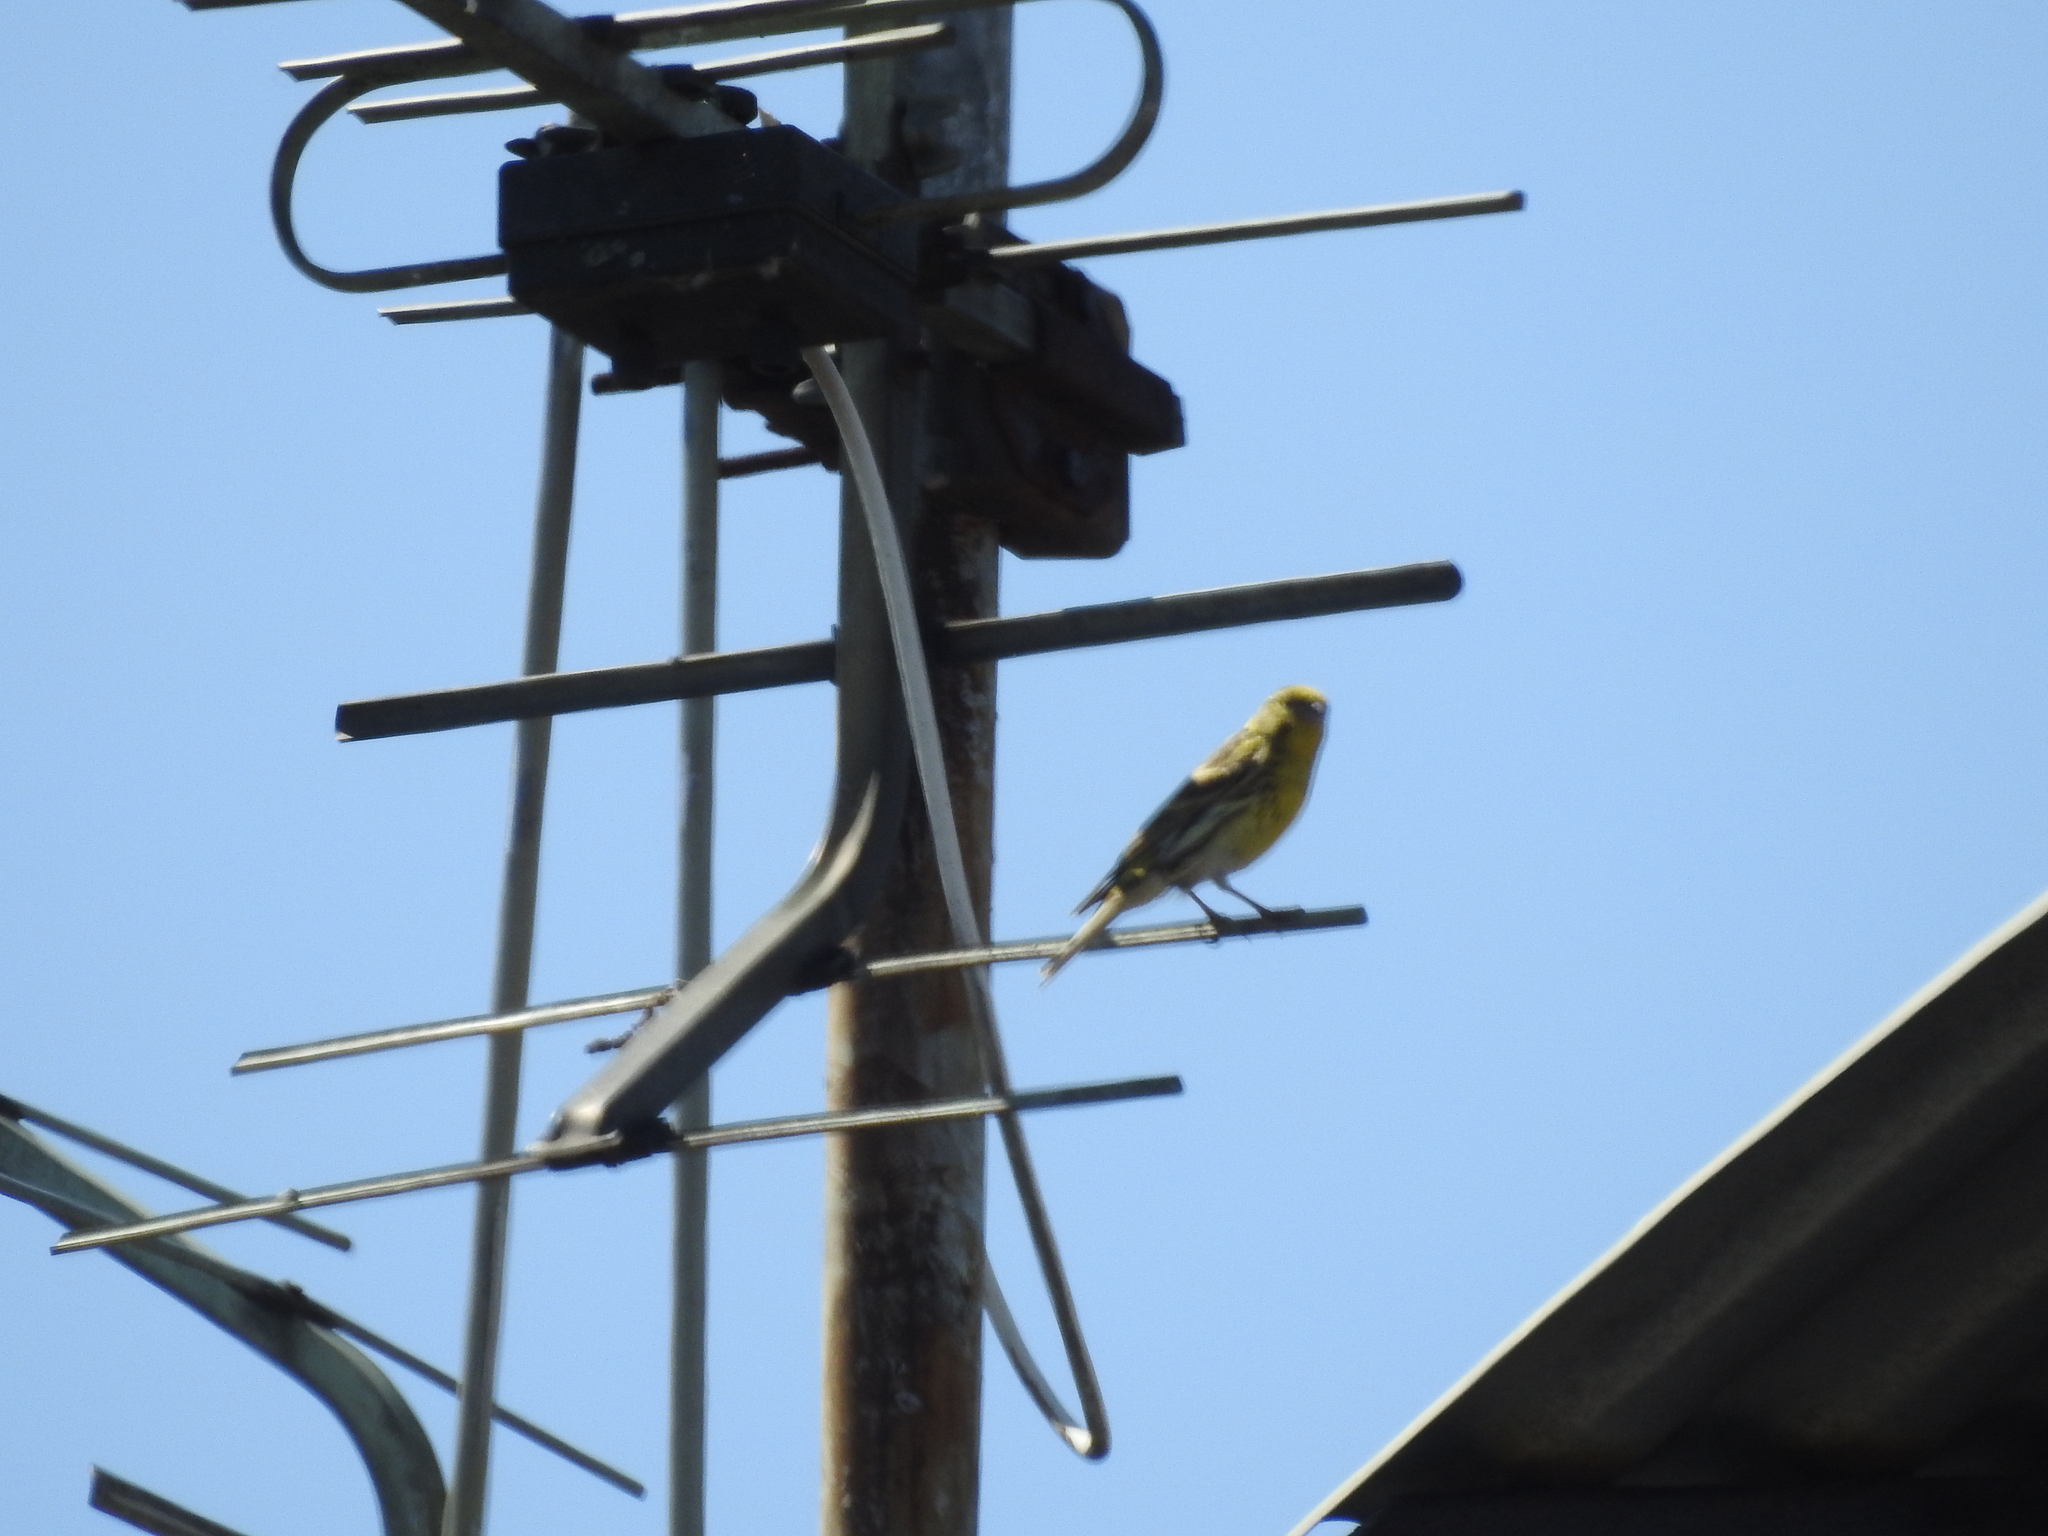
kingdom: Animalia
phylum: Chordata
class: Aves
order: Passeriformes
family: Fringillidae
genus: Serinus
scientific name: Serinus serinus
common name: European serin
